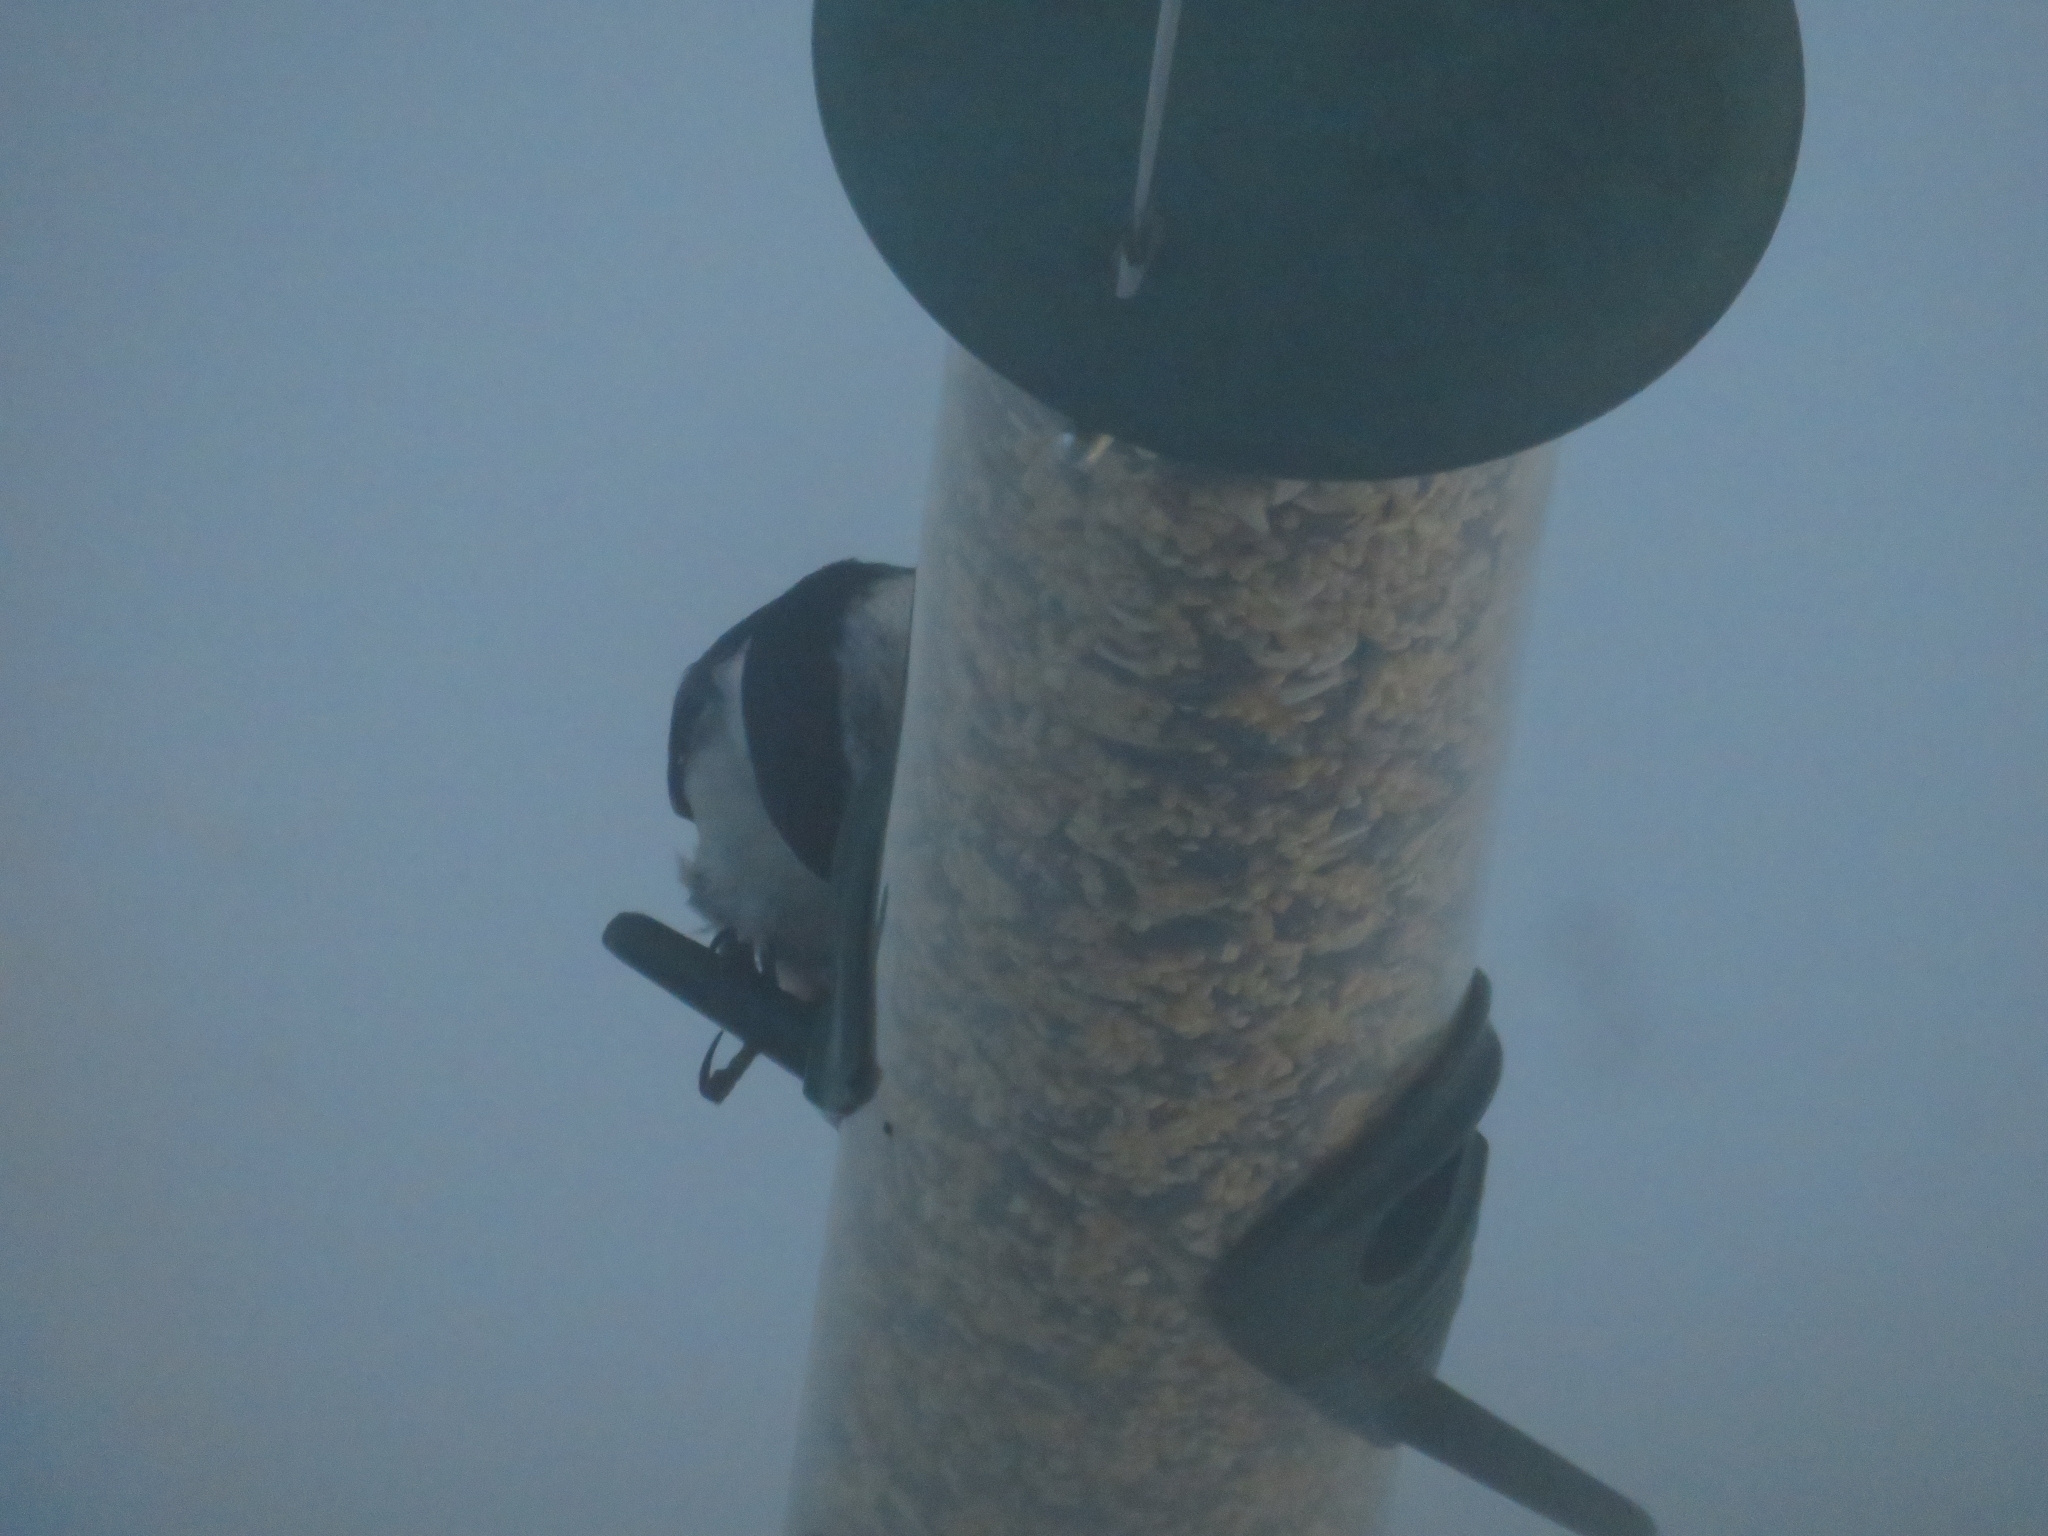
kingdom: Animalia
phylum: Chordata
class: Aves
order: Passeriformes
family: Sittidae
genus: Sitta
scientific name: Sitta carolinensis
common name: White-breasted nuthatch
